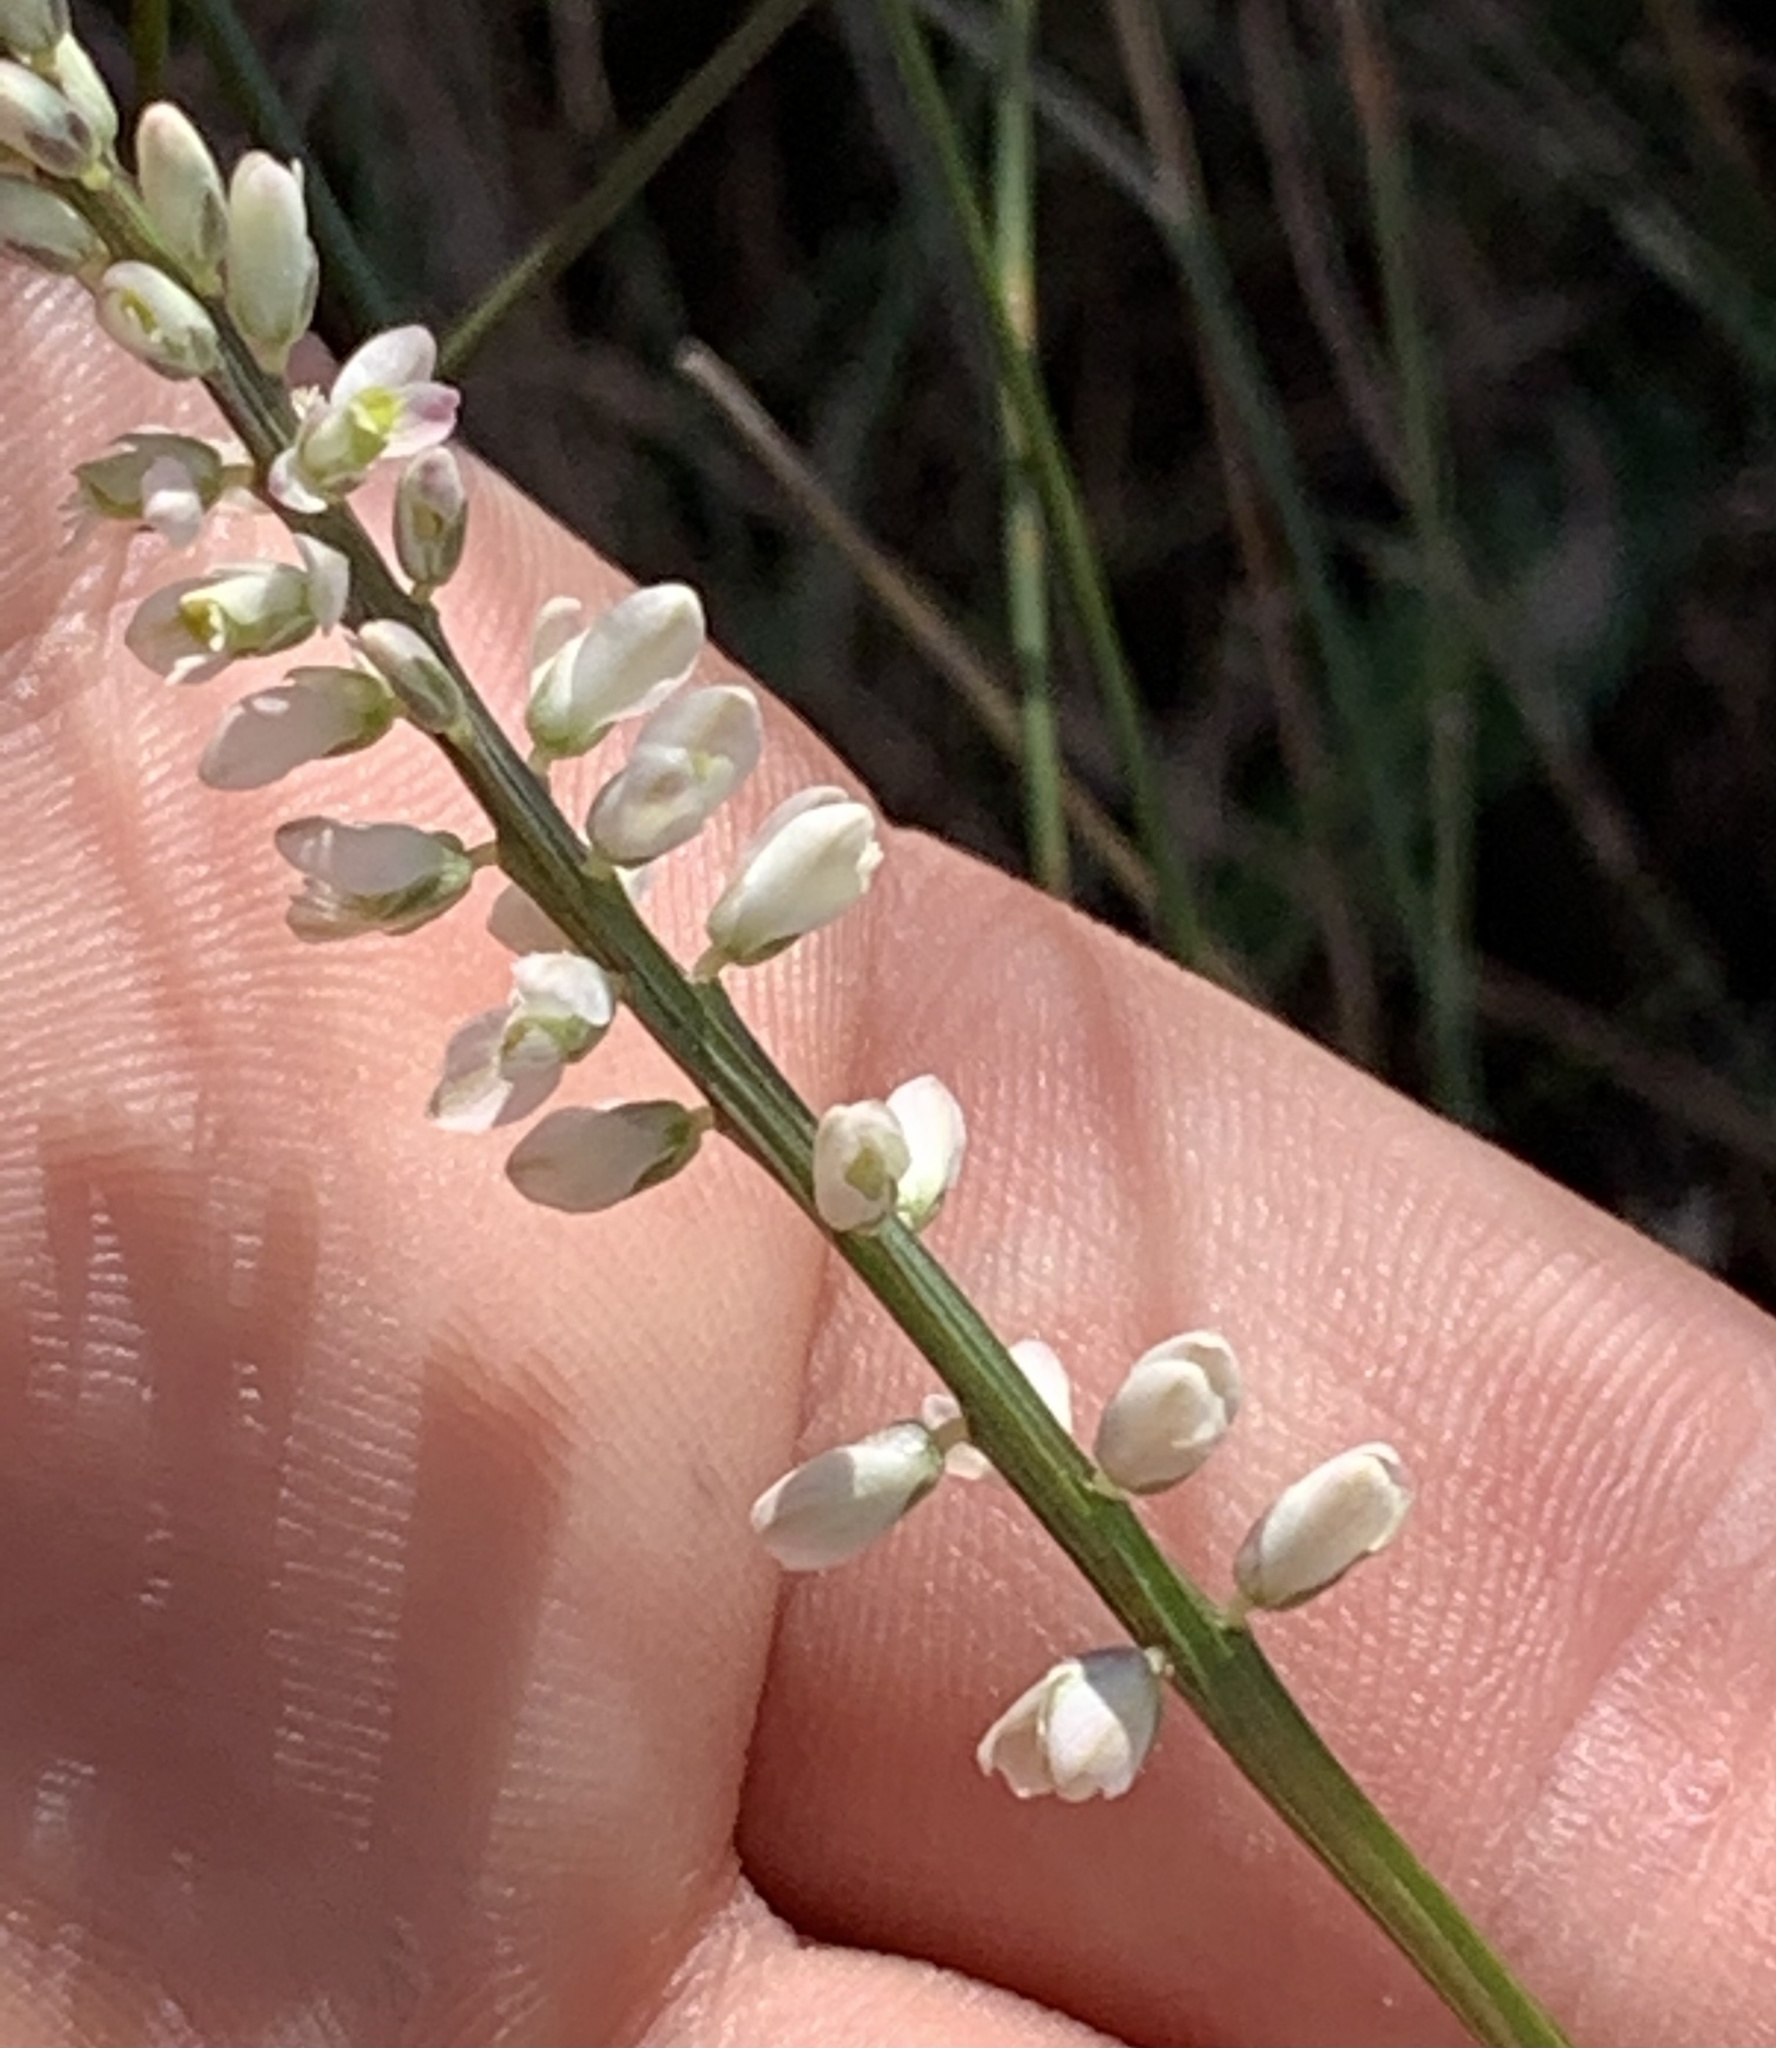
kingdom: Plantae
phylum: Tracheophyta
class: Magnoliopsida
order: Fabales
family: Polygalaceae
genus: Polygala
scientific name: Polygala boykinii
